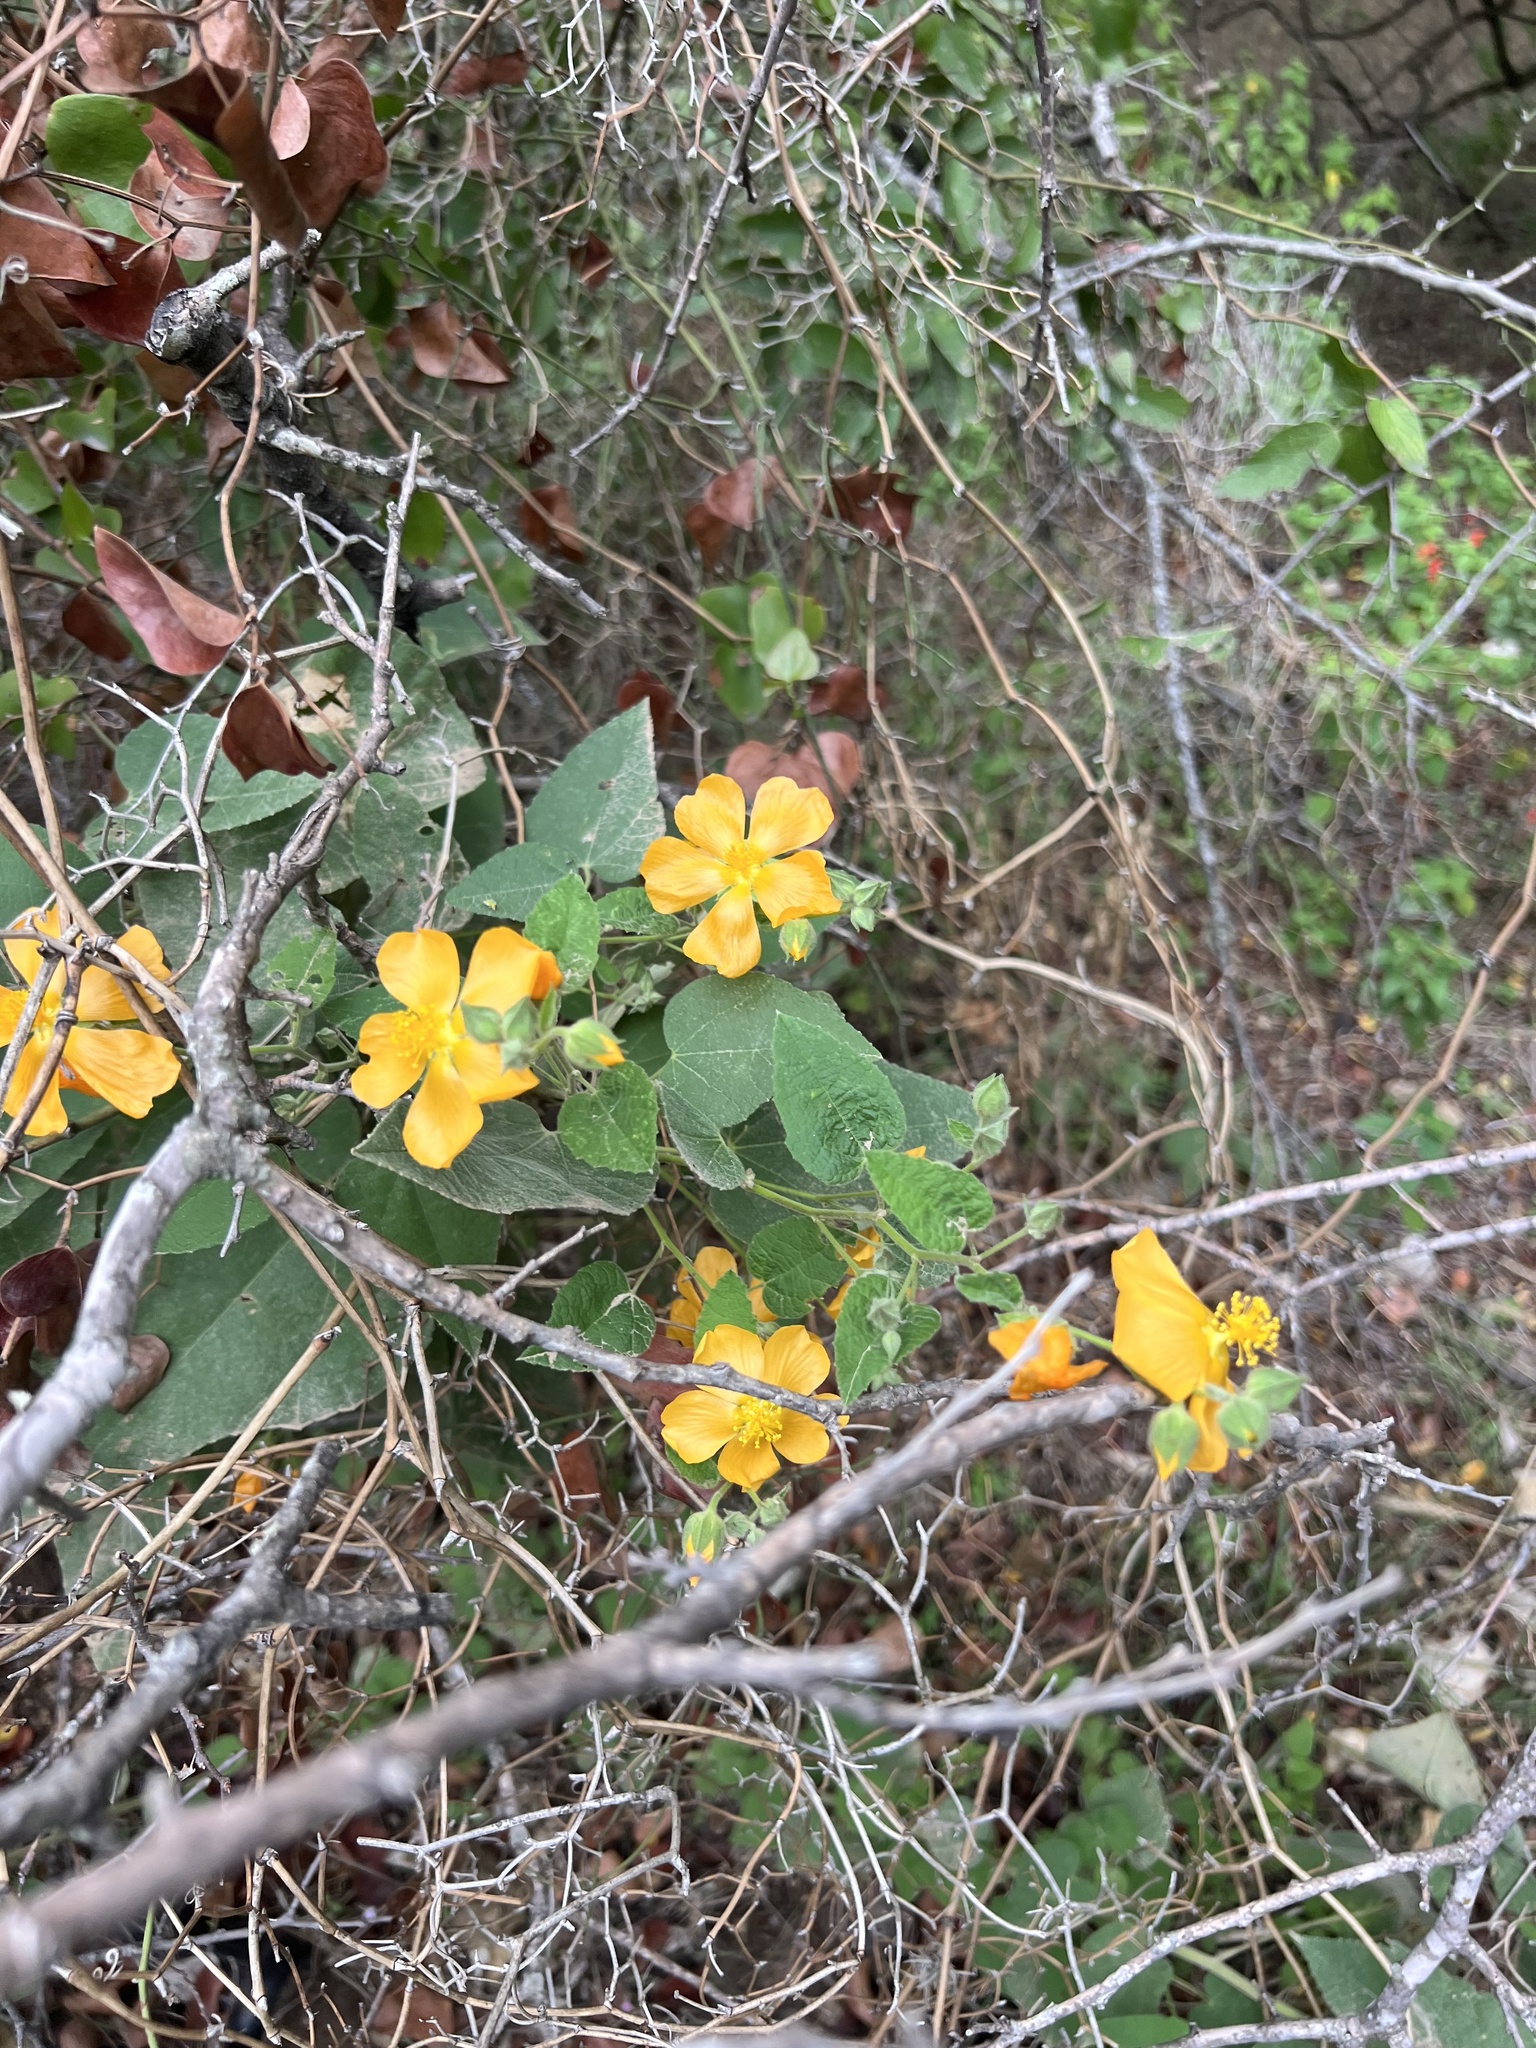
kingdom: Plantae
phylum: Tracheophyta
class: Magnoliopsida
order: Malvales
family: Malvaceae
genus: Allowissadula
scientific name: Allowissadula holosericea
